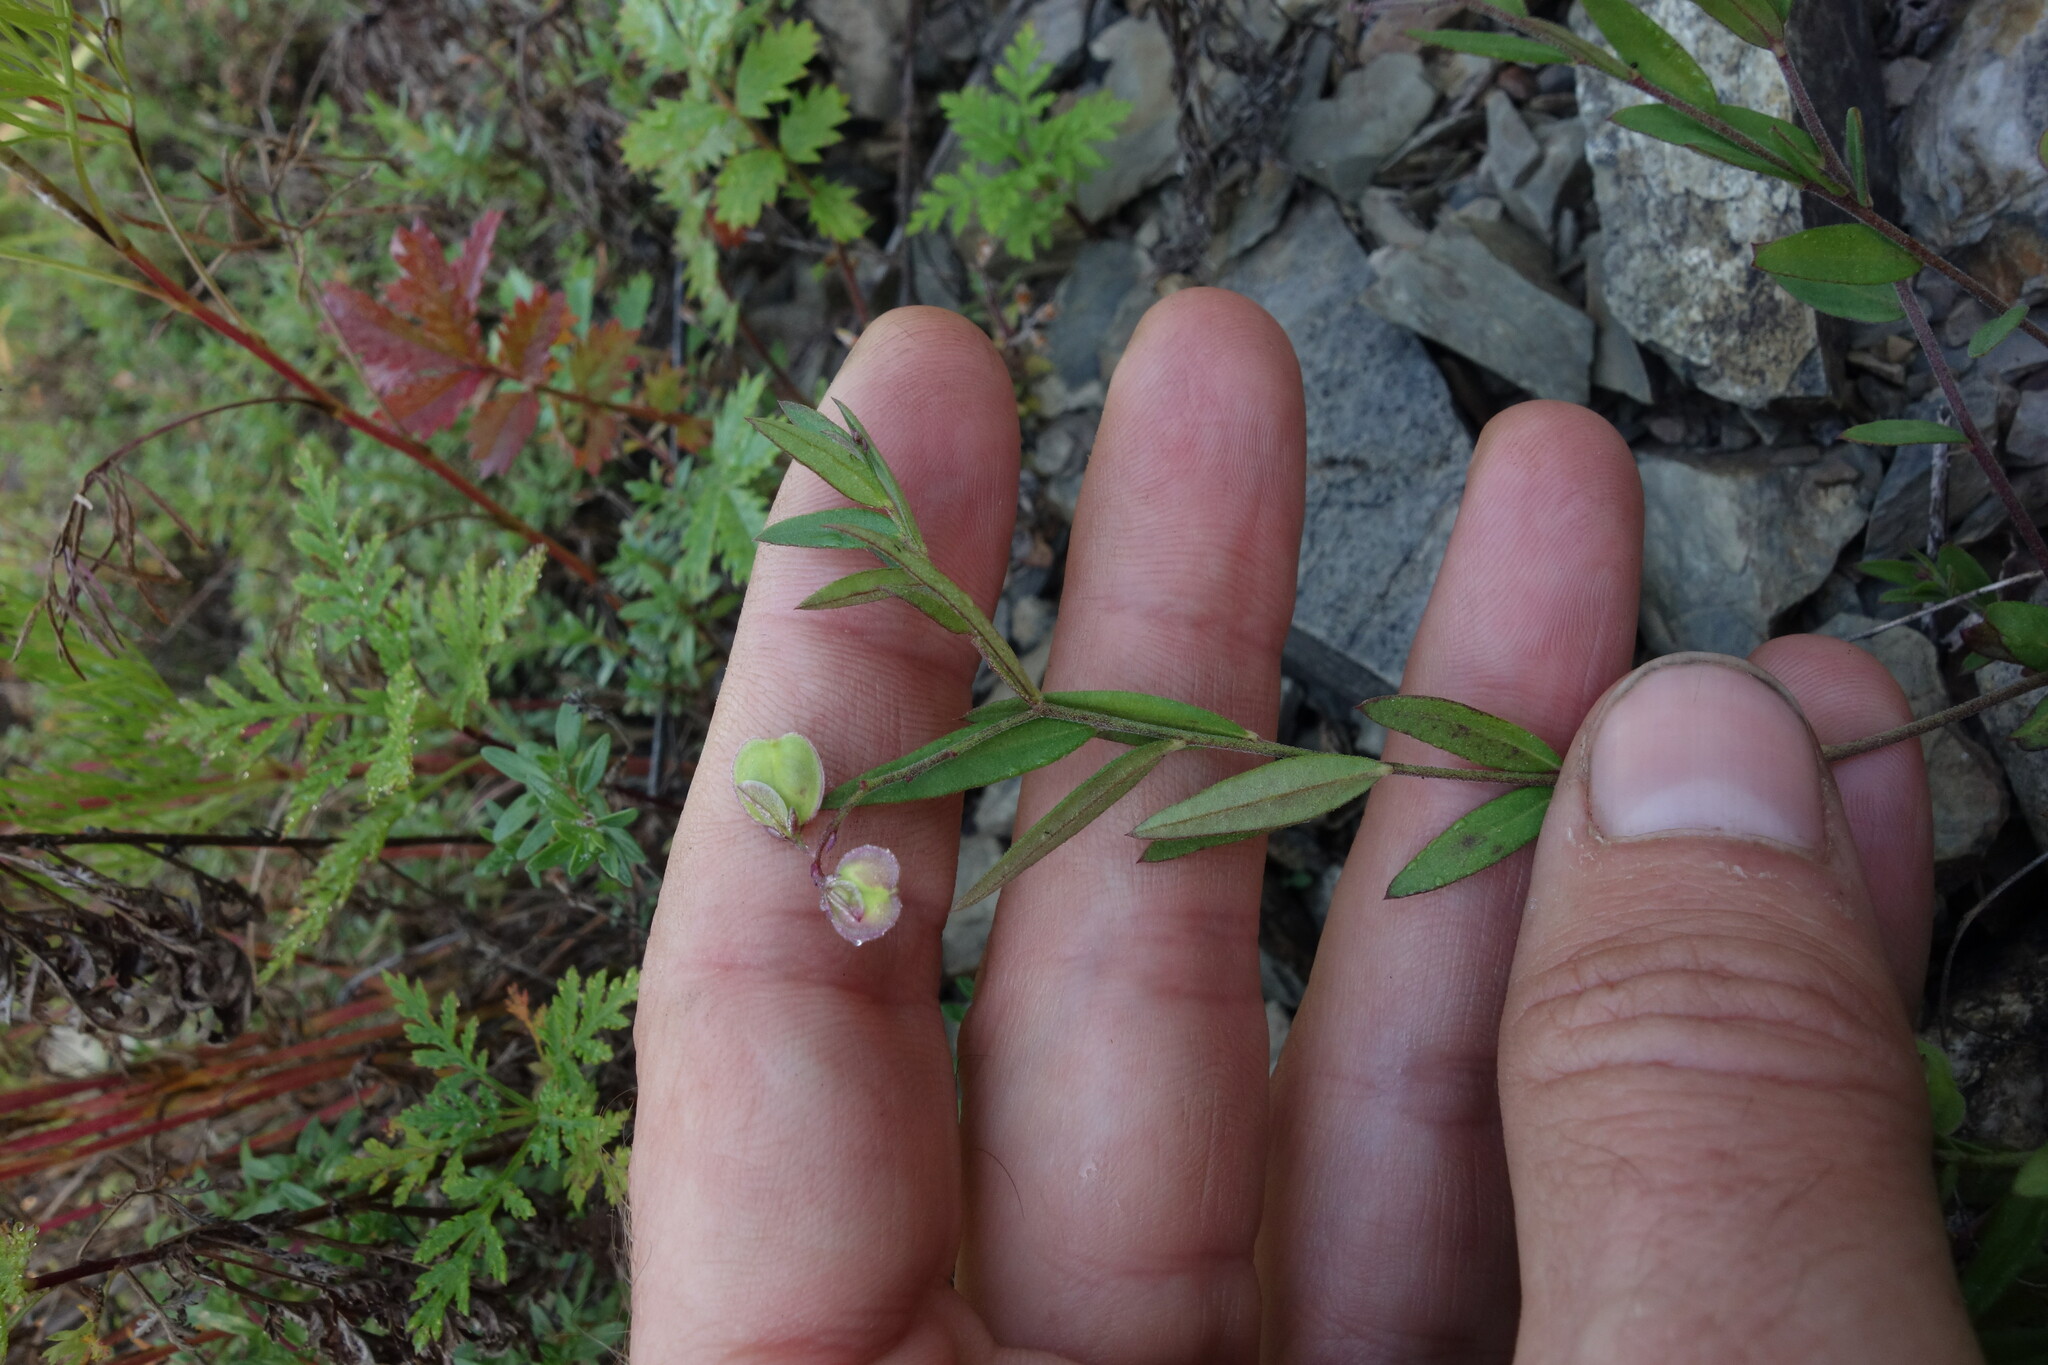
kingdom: Plantae
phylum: Tracheophyta
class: Magnoliopsida
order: Fabales
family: Polygalaceae
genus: Polygala
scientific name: Polygala sibirica
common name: Siberian polygala
